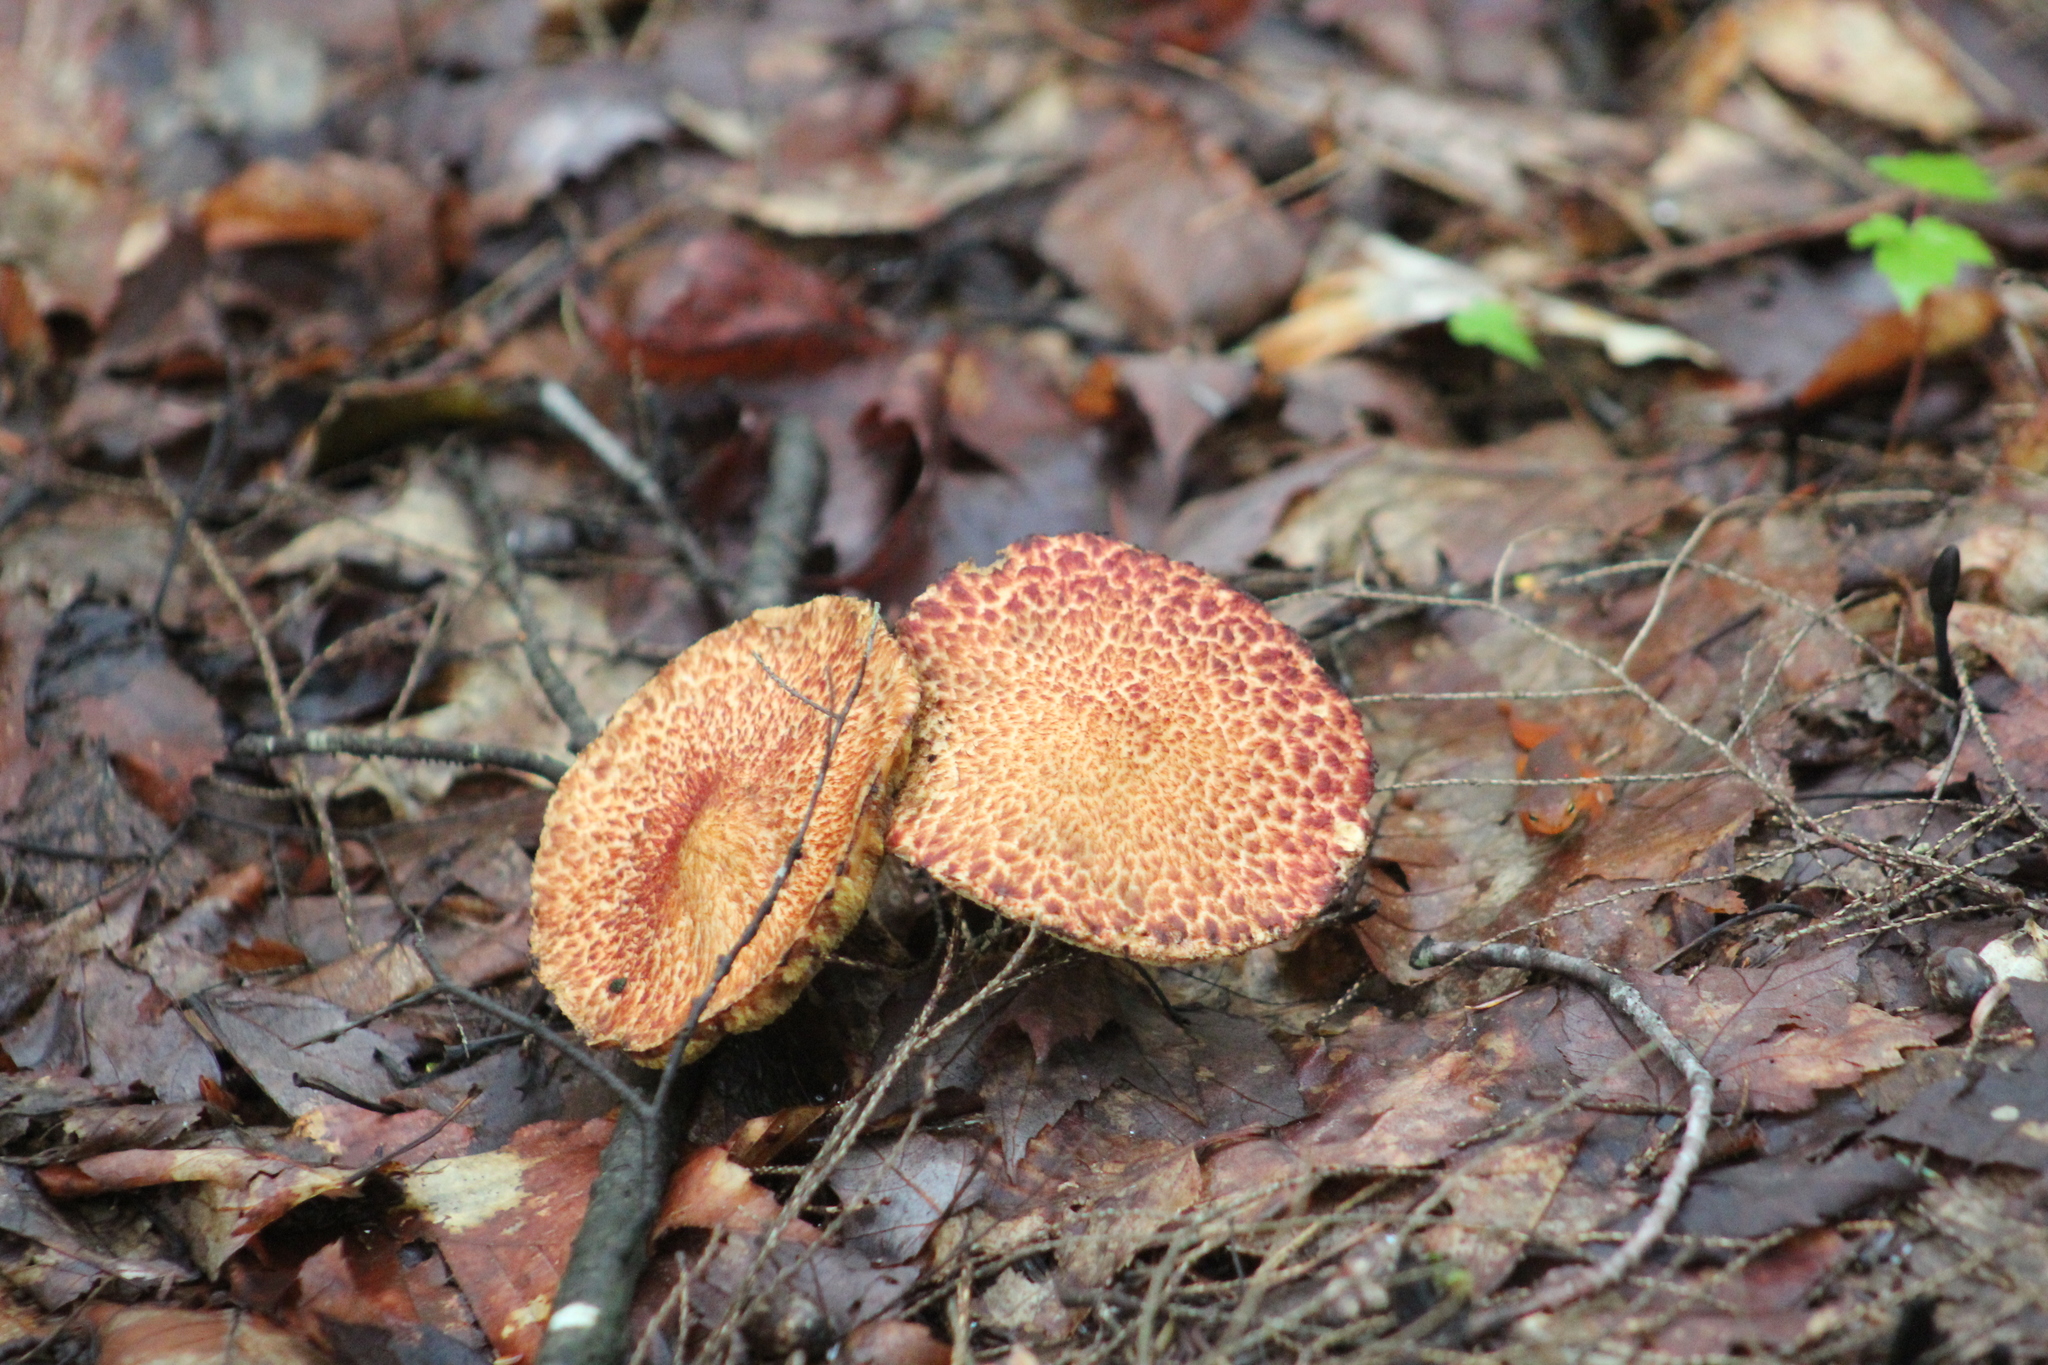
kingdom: Fungi
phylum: Basidiomycota
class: Agaricomycetes
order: Boletales
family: Suillaceae
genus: Suillus
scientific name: Suillus spraguei
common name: Painted suillus
